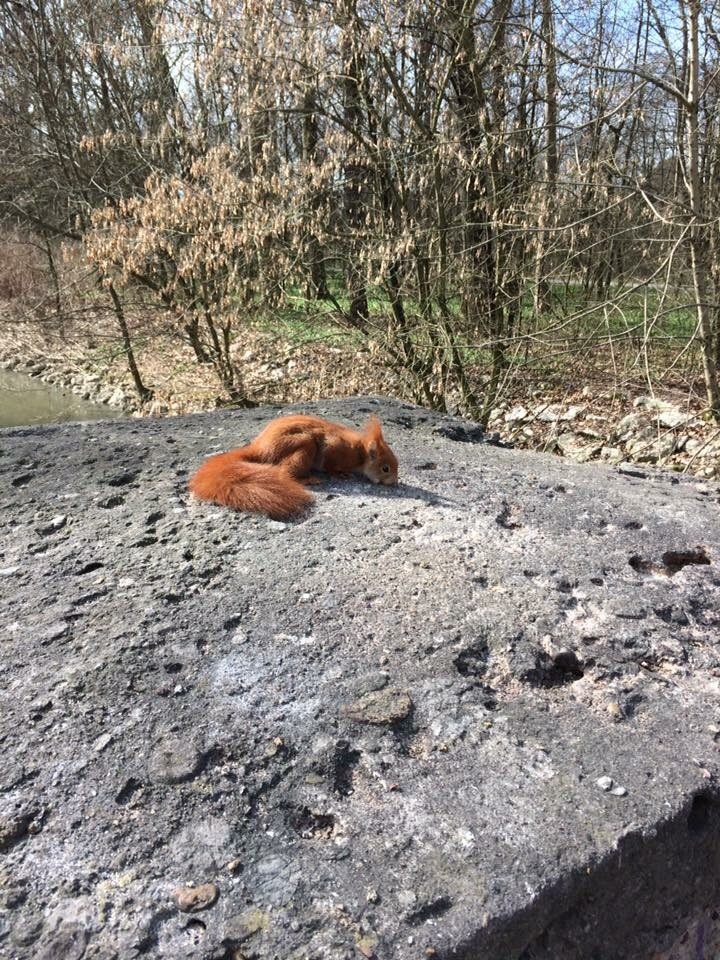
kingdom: Animalia
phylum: Chordata
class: Mammalia
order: Rodentia
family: Sciuridae
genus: Sciurus
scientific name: Sciurus vulgaris
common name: Eurasian red squirrel
